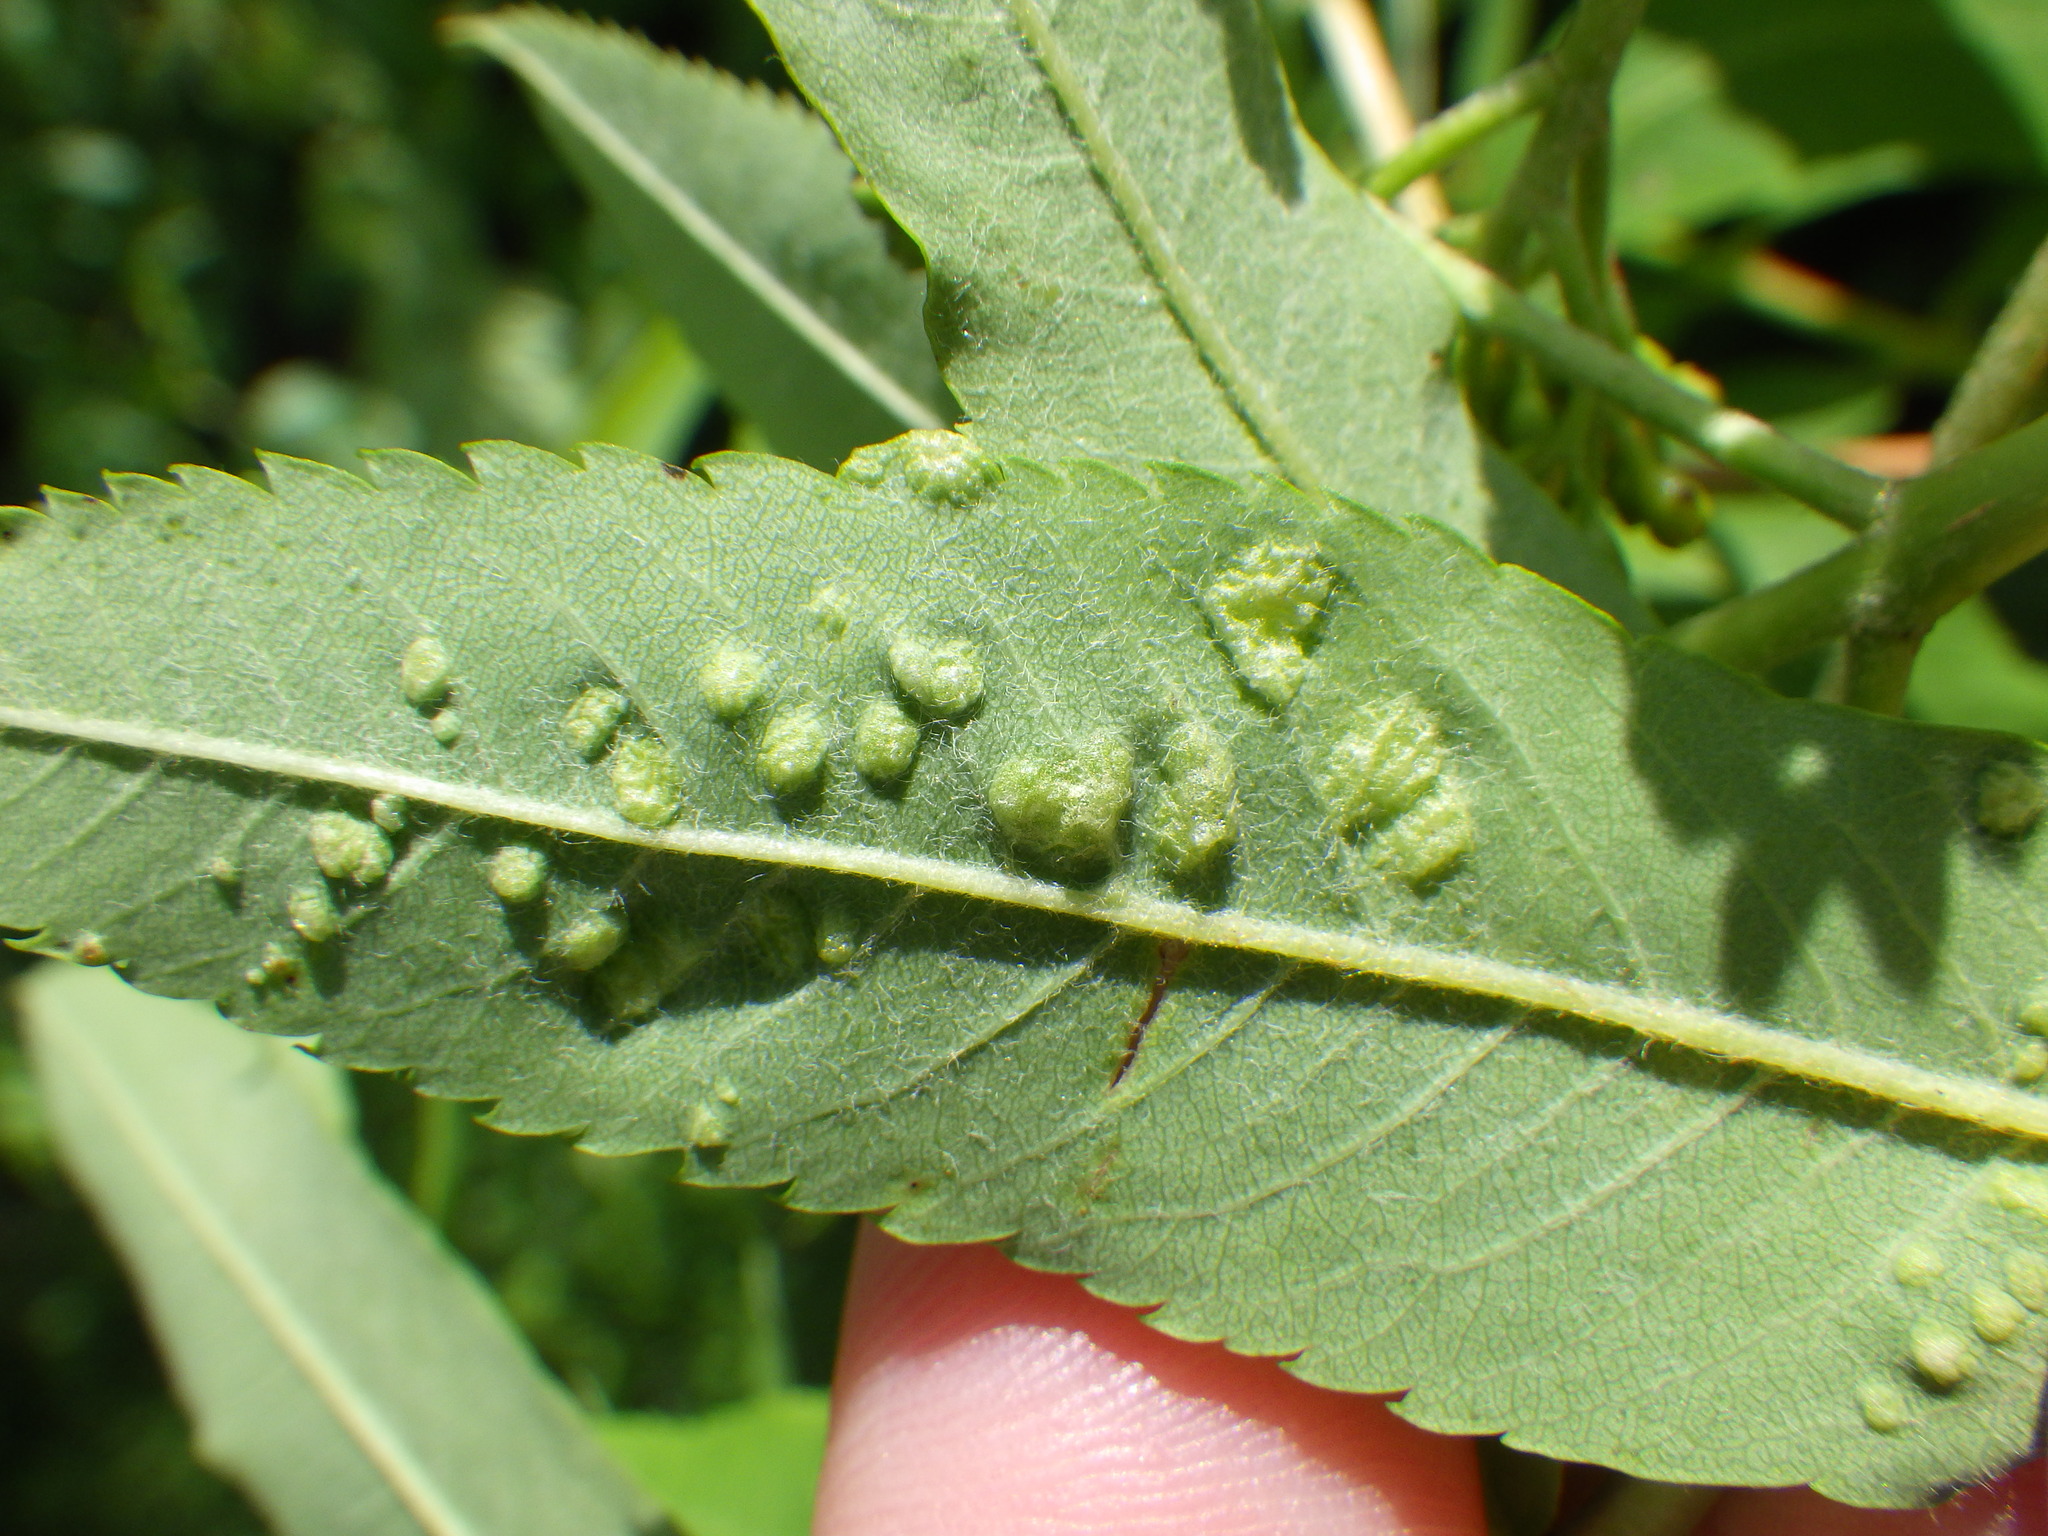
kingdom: Animalia
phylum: Arthropoda
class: Arachnida
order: Trombidiformes
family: Eriophyidae
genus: Eriophyes
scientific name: Eriophyes pyri
